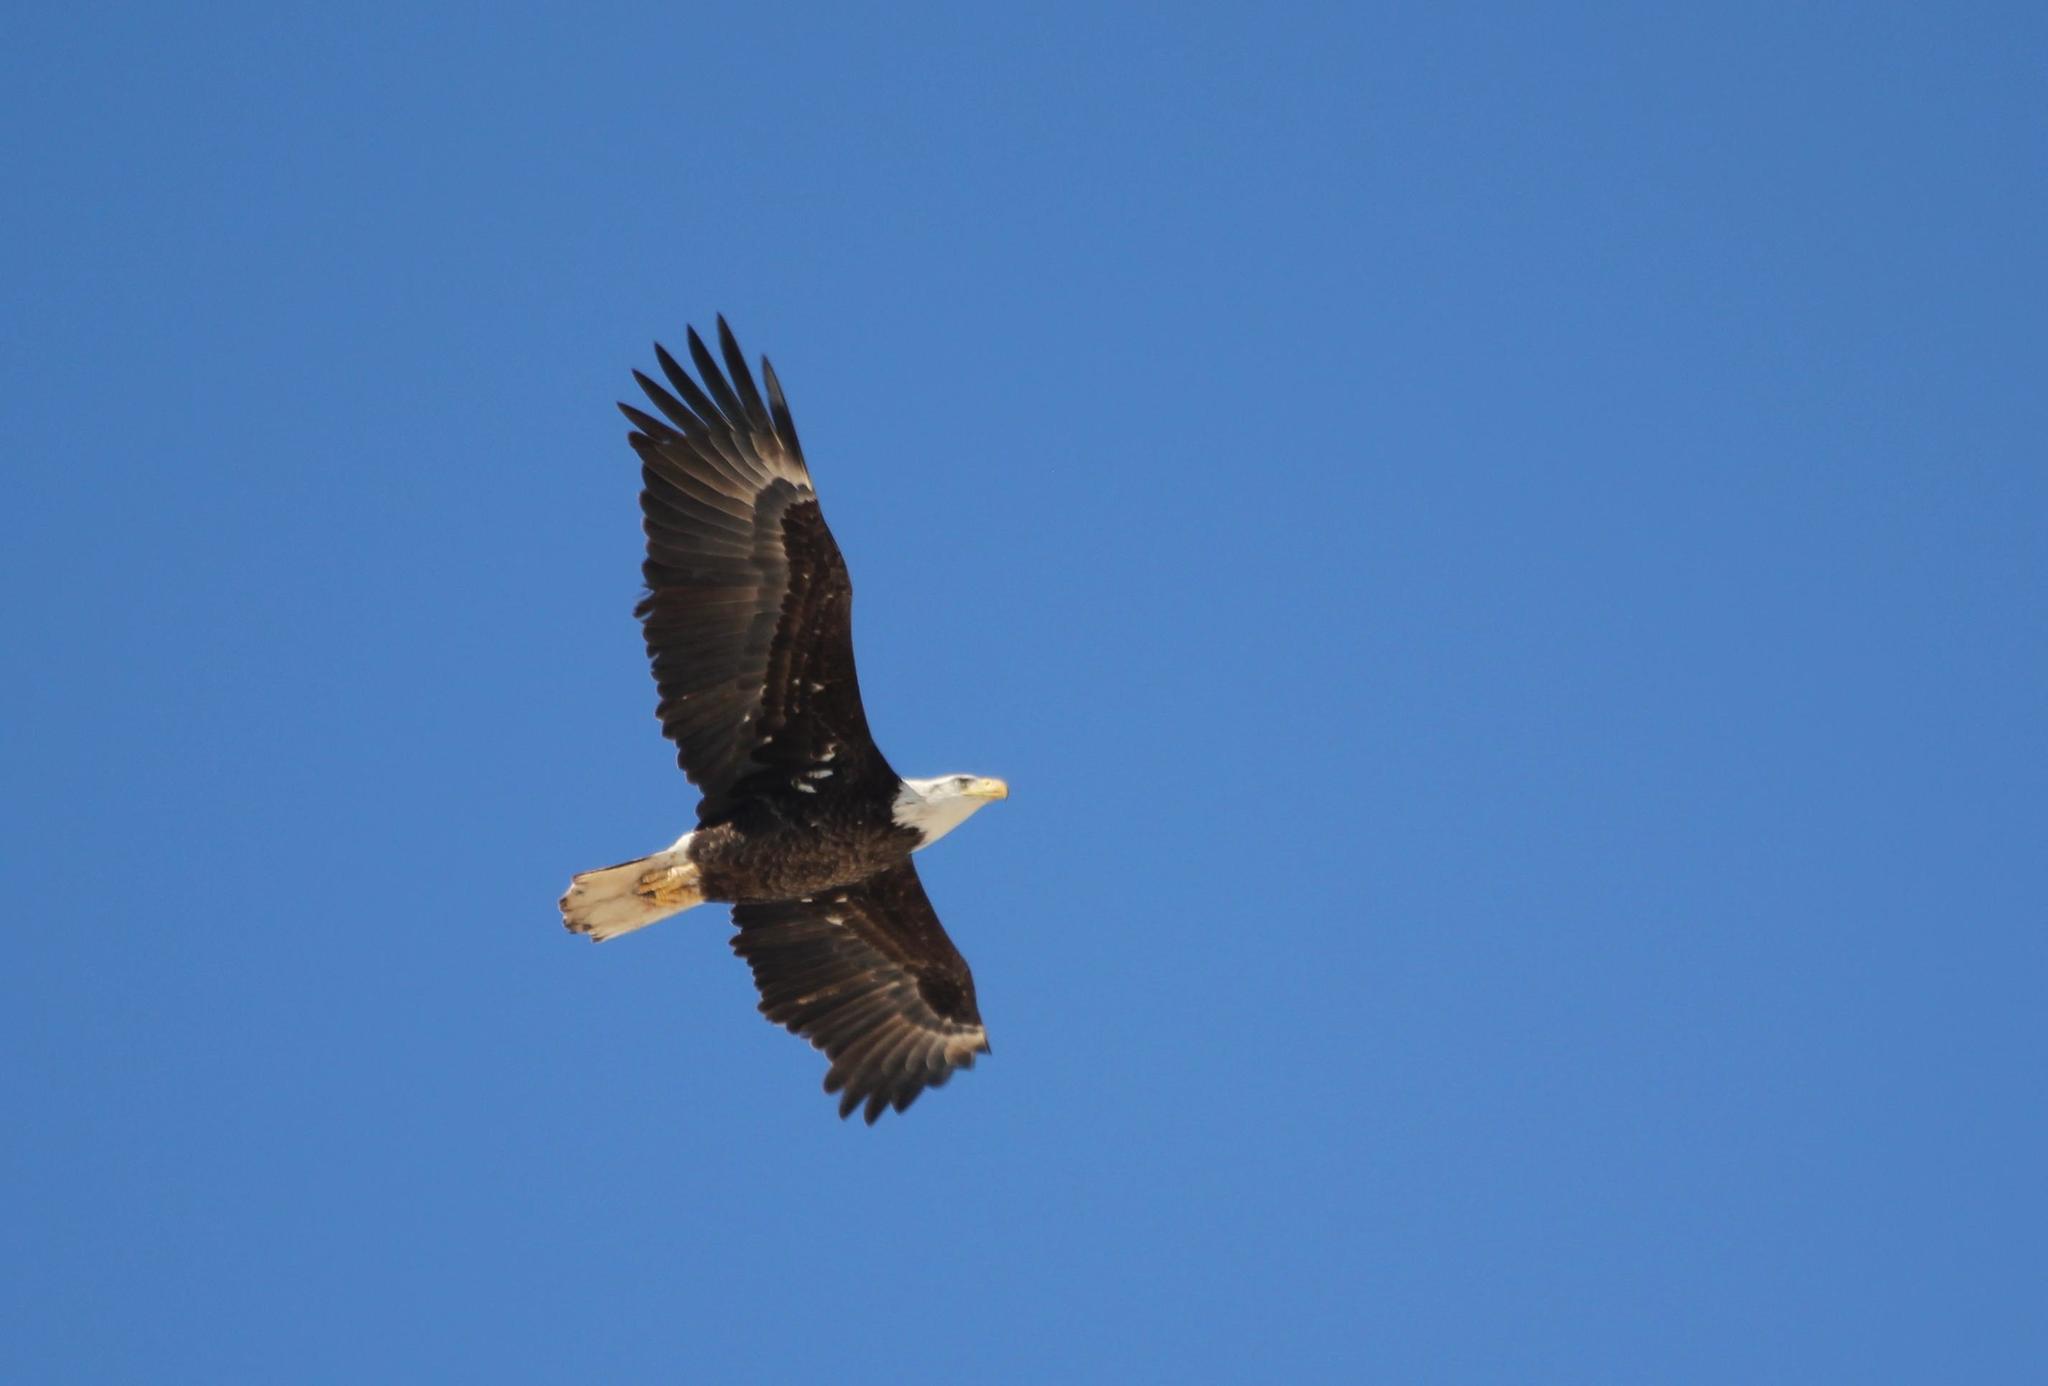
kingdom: Animalia
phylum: Chordata
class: Aves
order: Accipitriformes
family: Accipitridae
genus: Haliaeetus
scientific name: Haliaeetus leucocephalus
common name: Bald eagle
